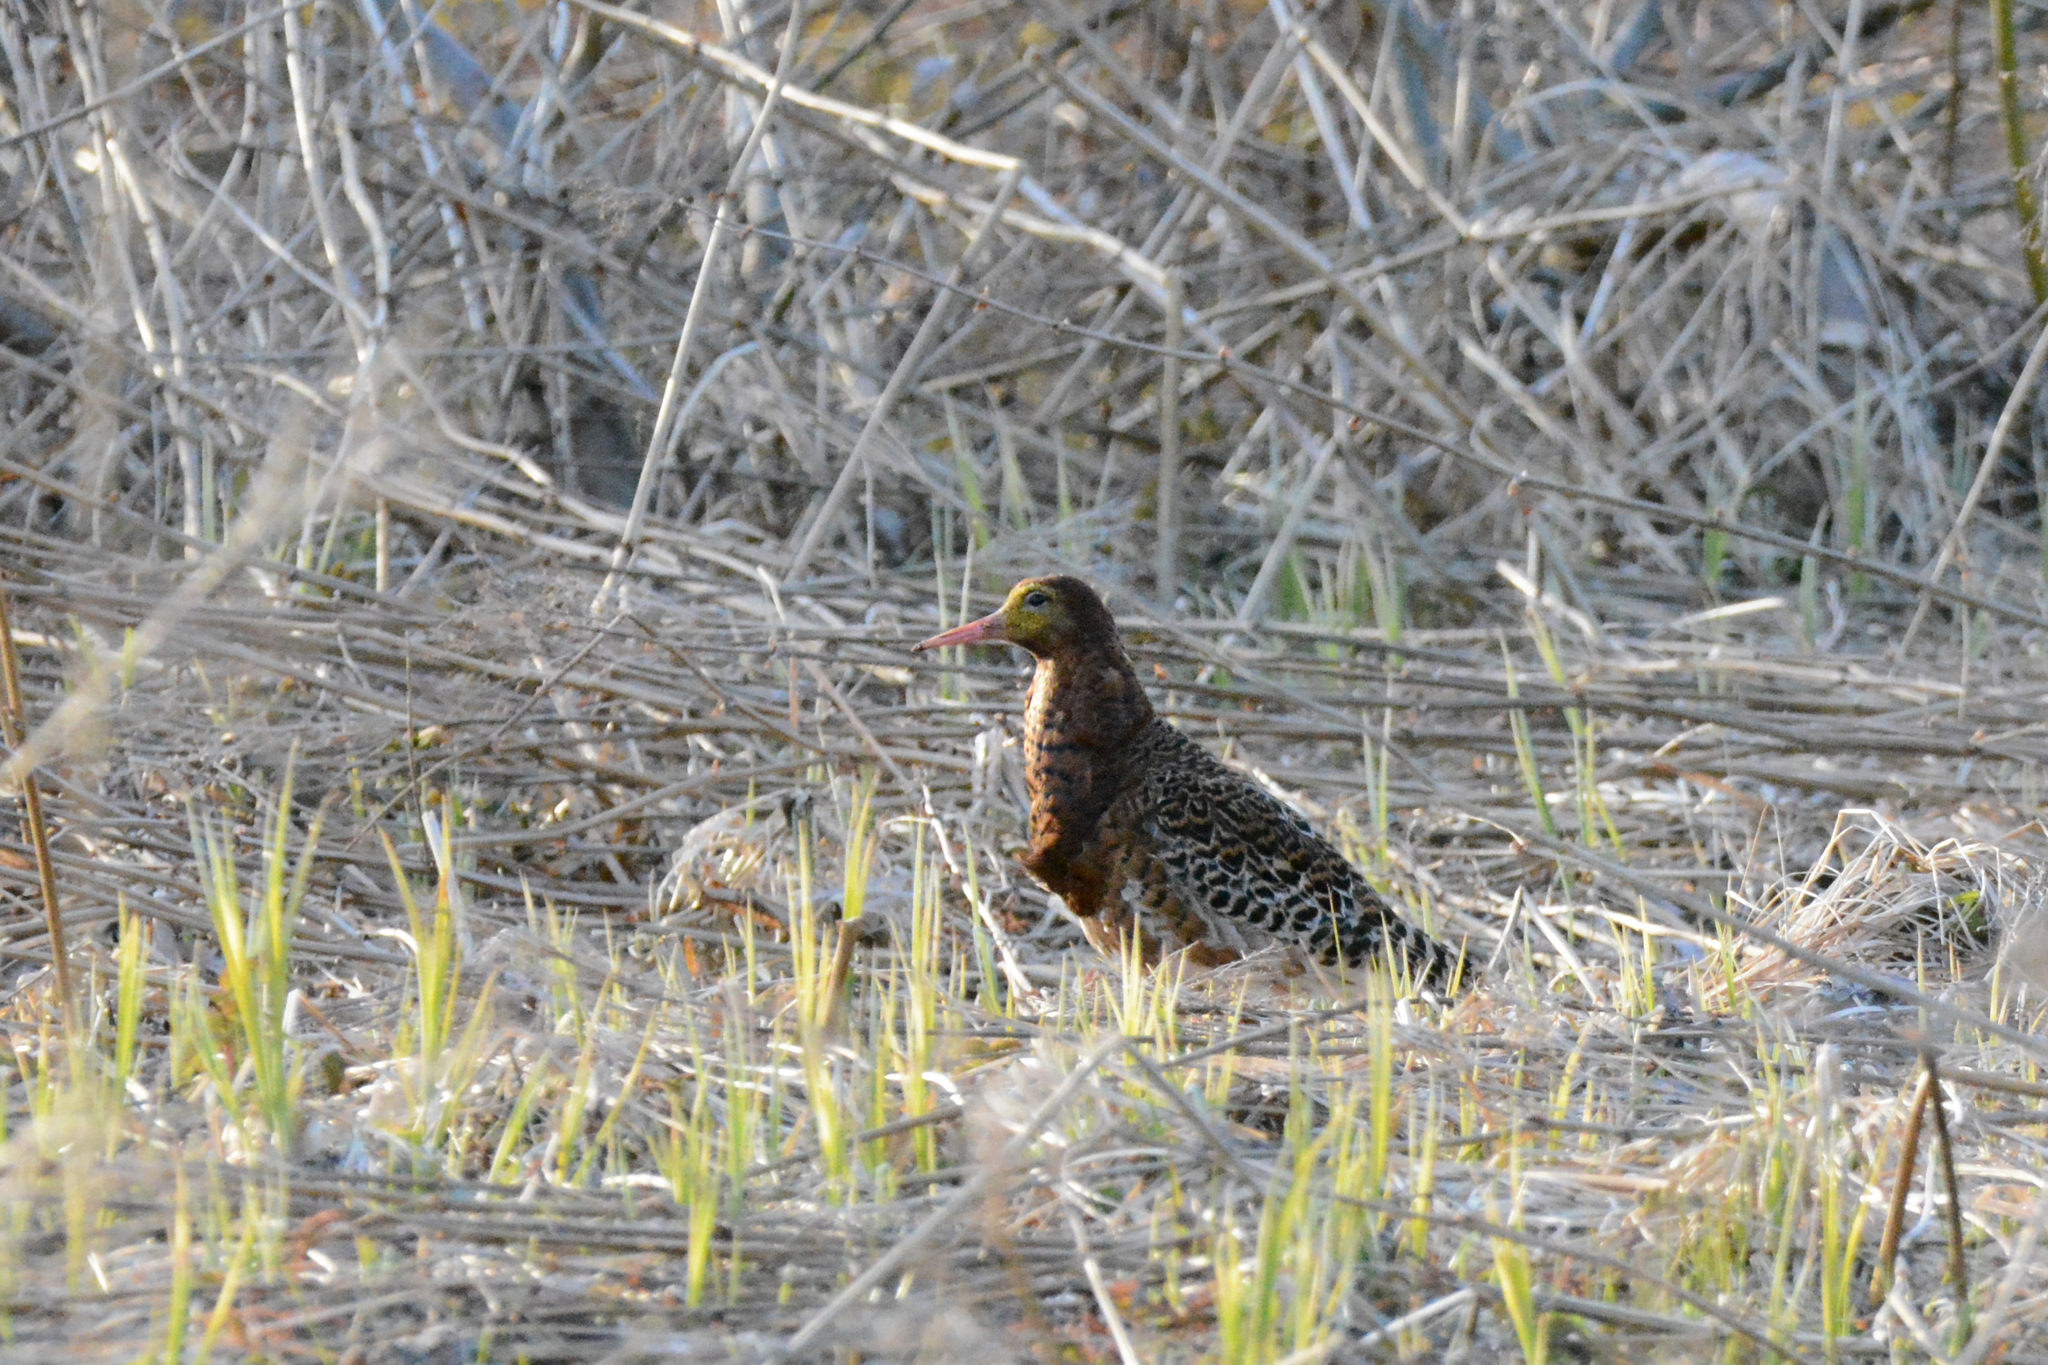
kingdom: Animalia
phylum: Chordata
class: Aves
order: Charadriiformes
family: Scolopacidae
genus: Calidris
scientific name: Calidris pugnax
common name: Ruff
